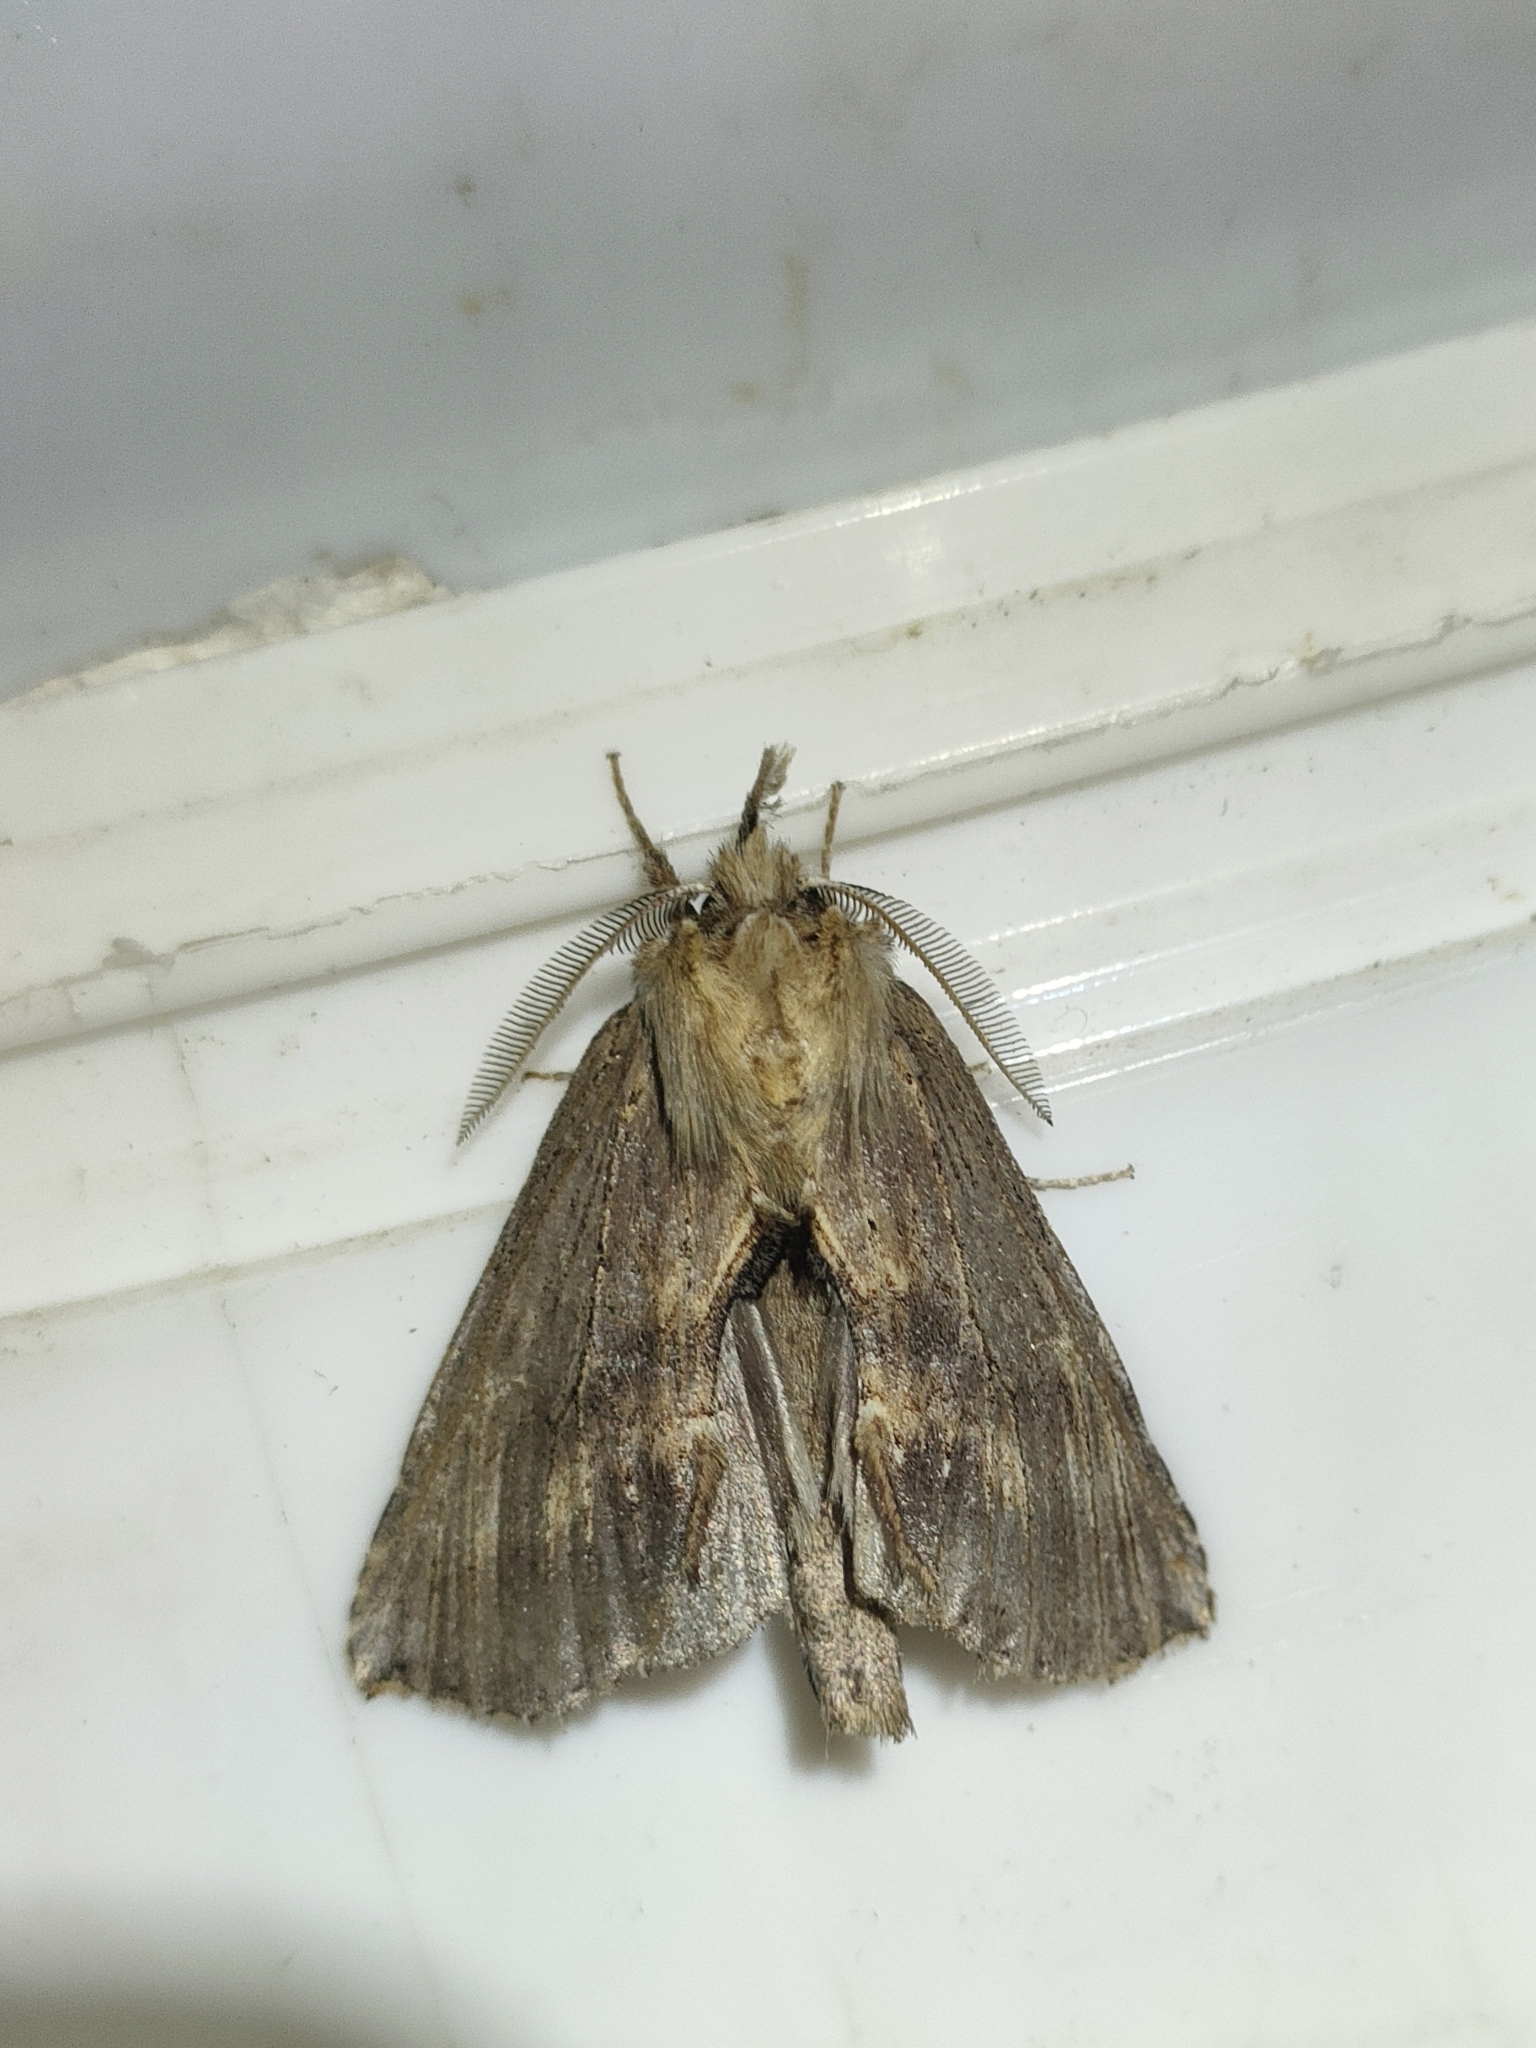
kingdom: Animalia
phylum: Arthropoda
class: Insecta
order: Lepidoptera
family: Notodontidae
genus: Pterostoma
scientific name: Pterostoma palpina
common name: Pale prominent
